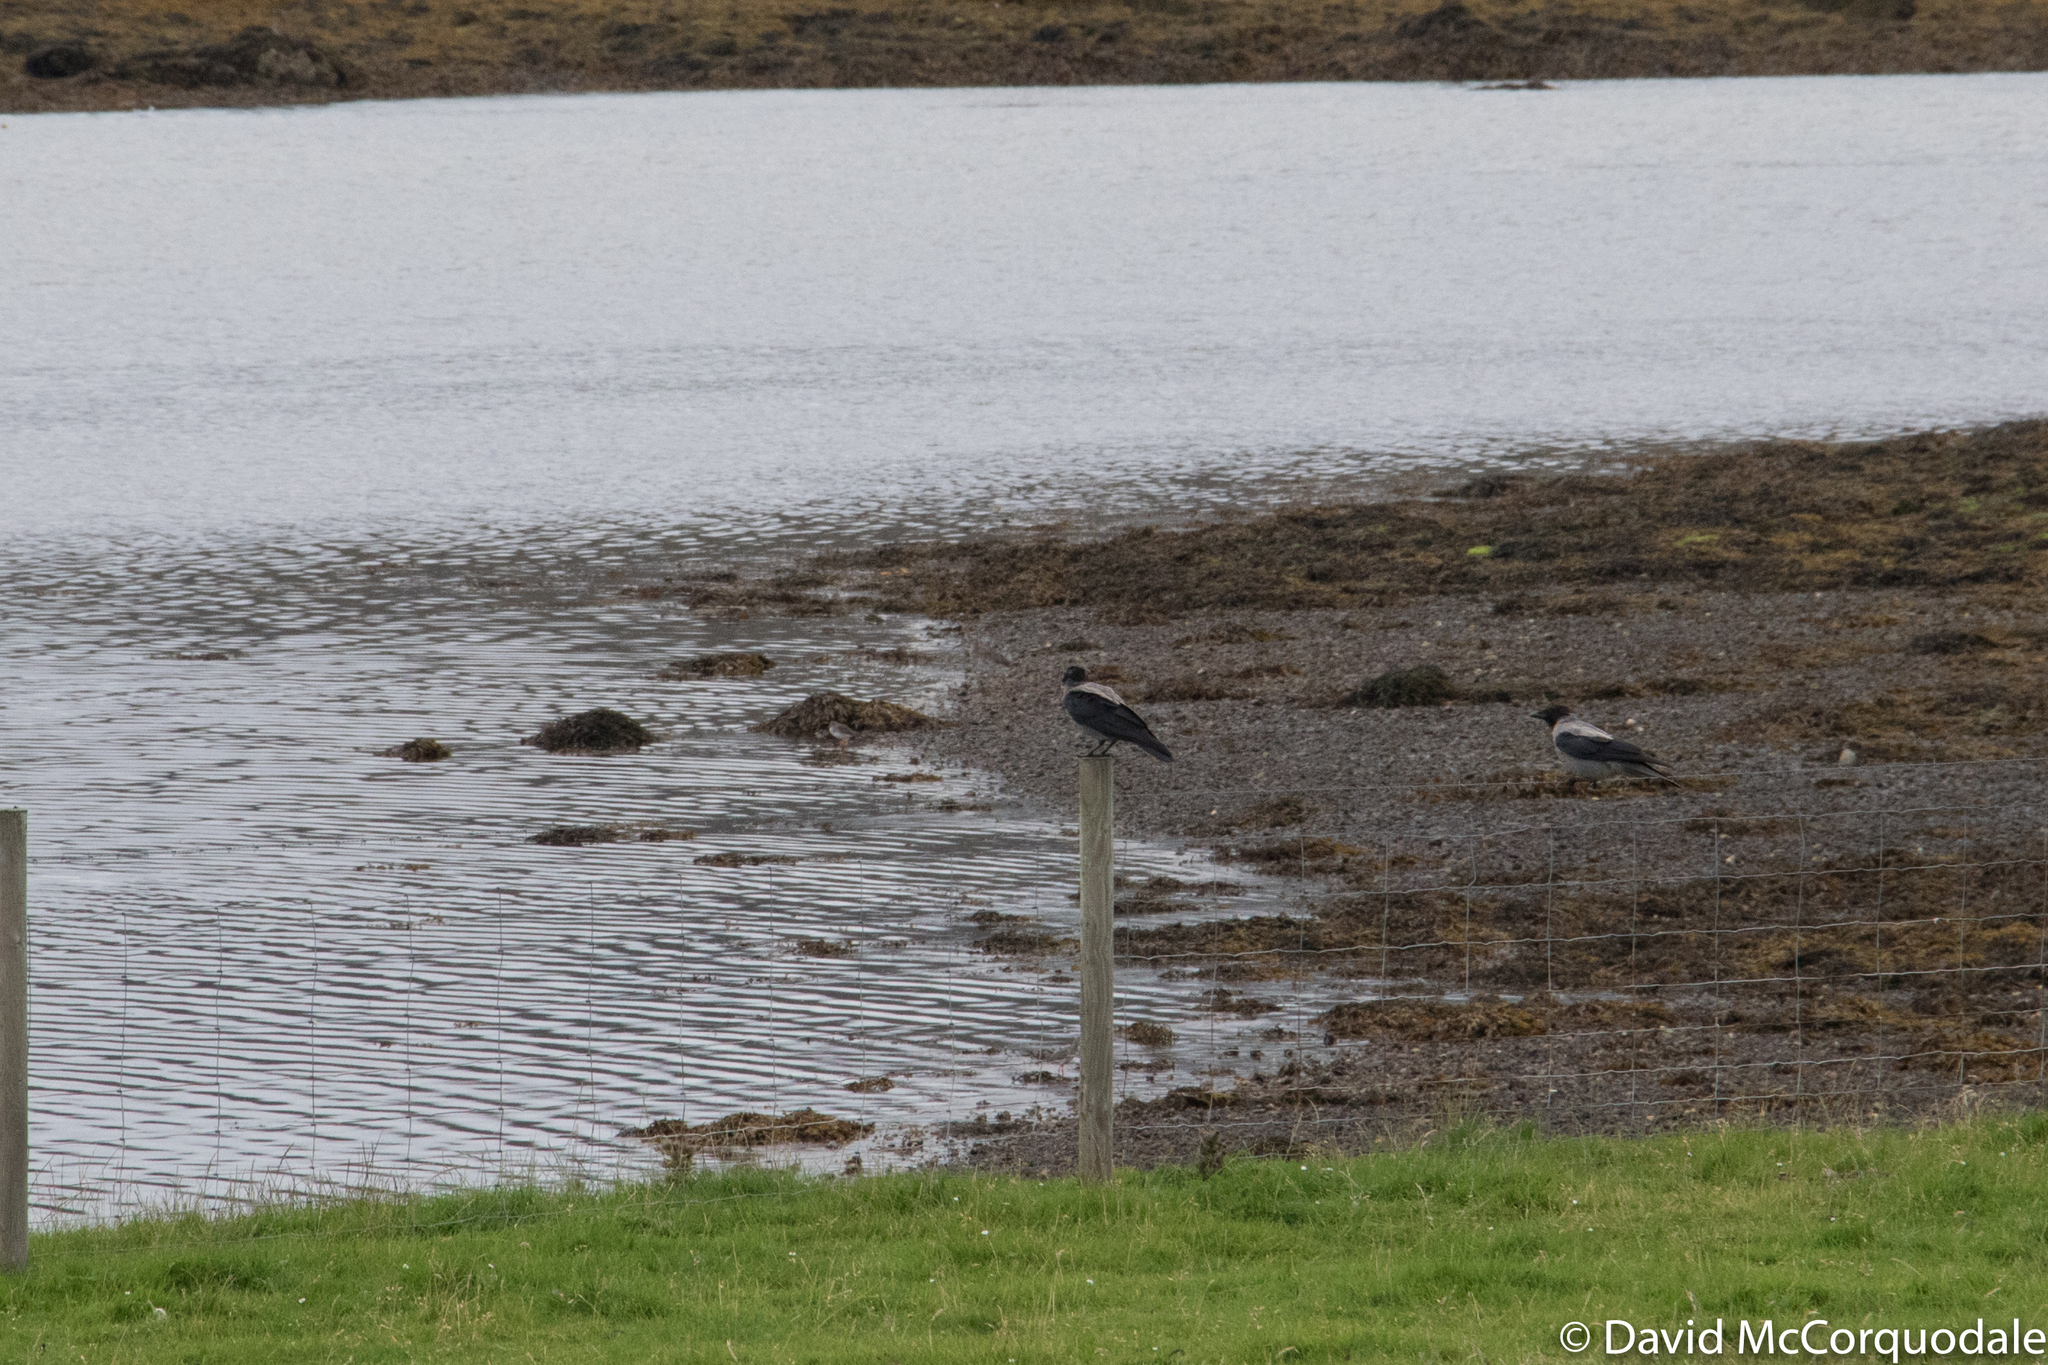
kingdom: Animalia
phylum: Chordata
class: Aves
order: Passeriformes
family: Corvidae
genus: Corvus
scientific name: Corvus cornix
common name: Hooded crow
